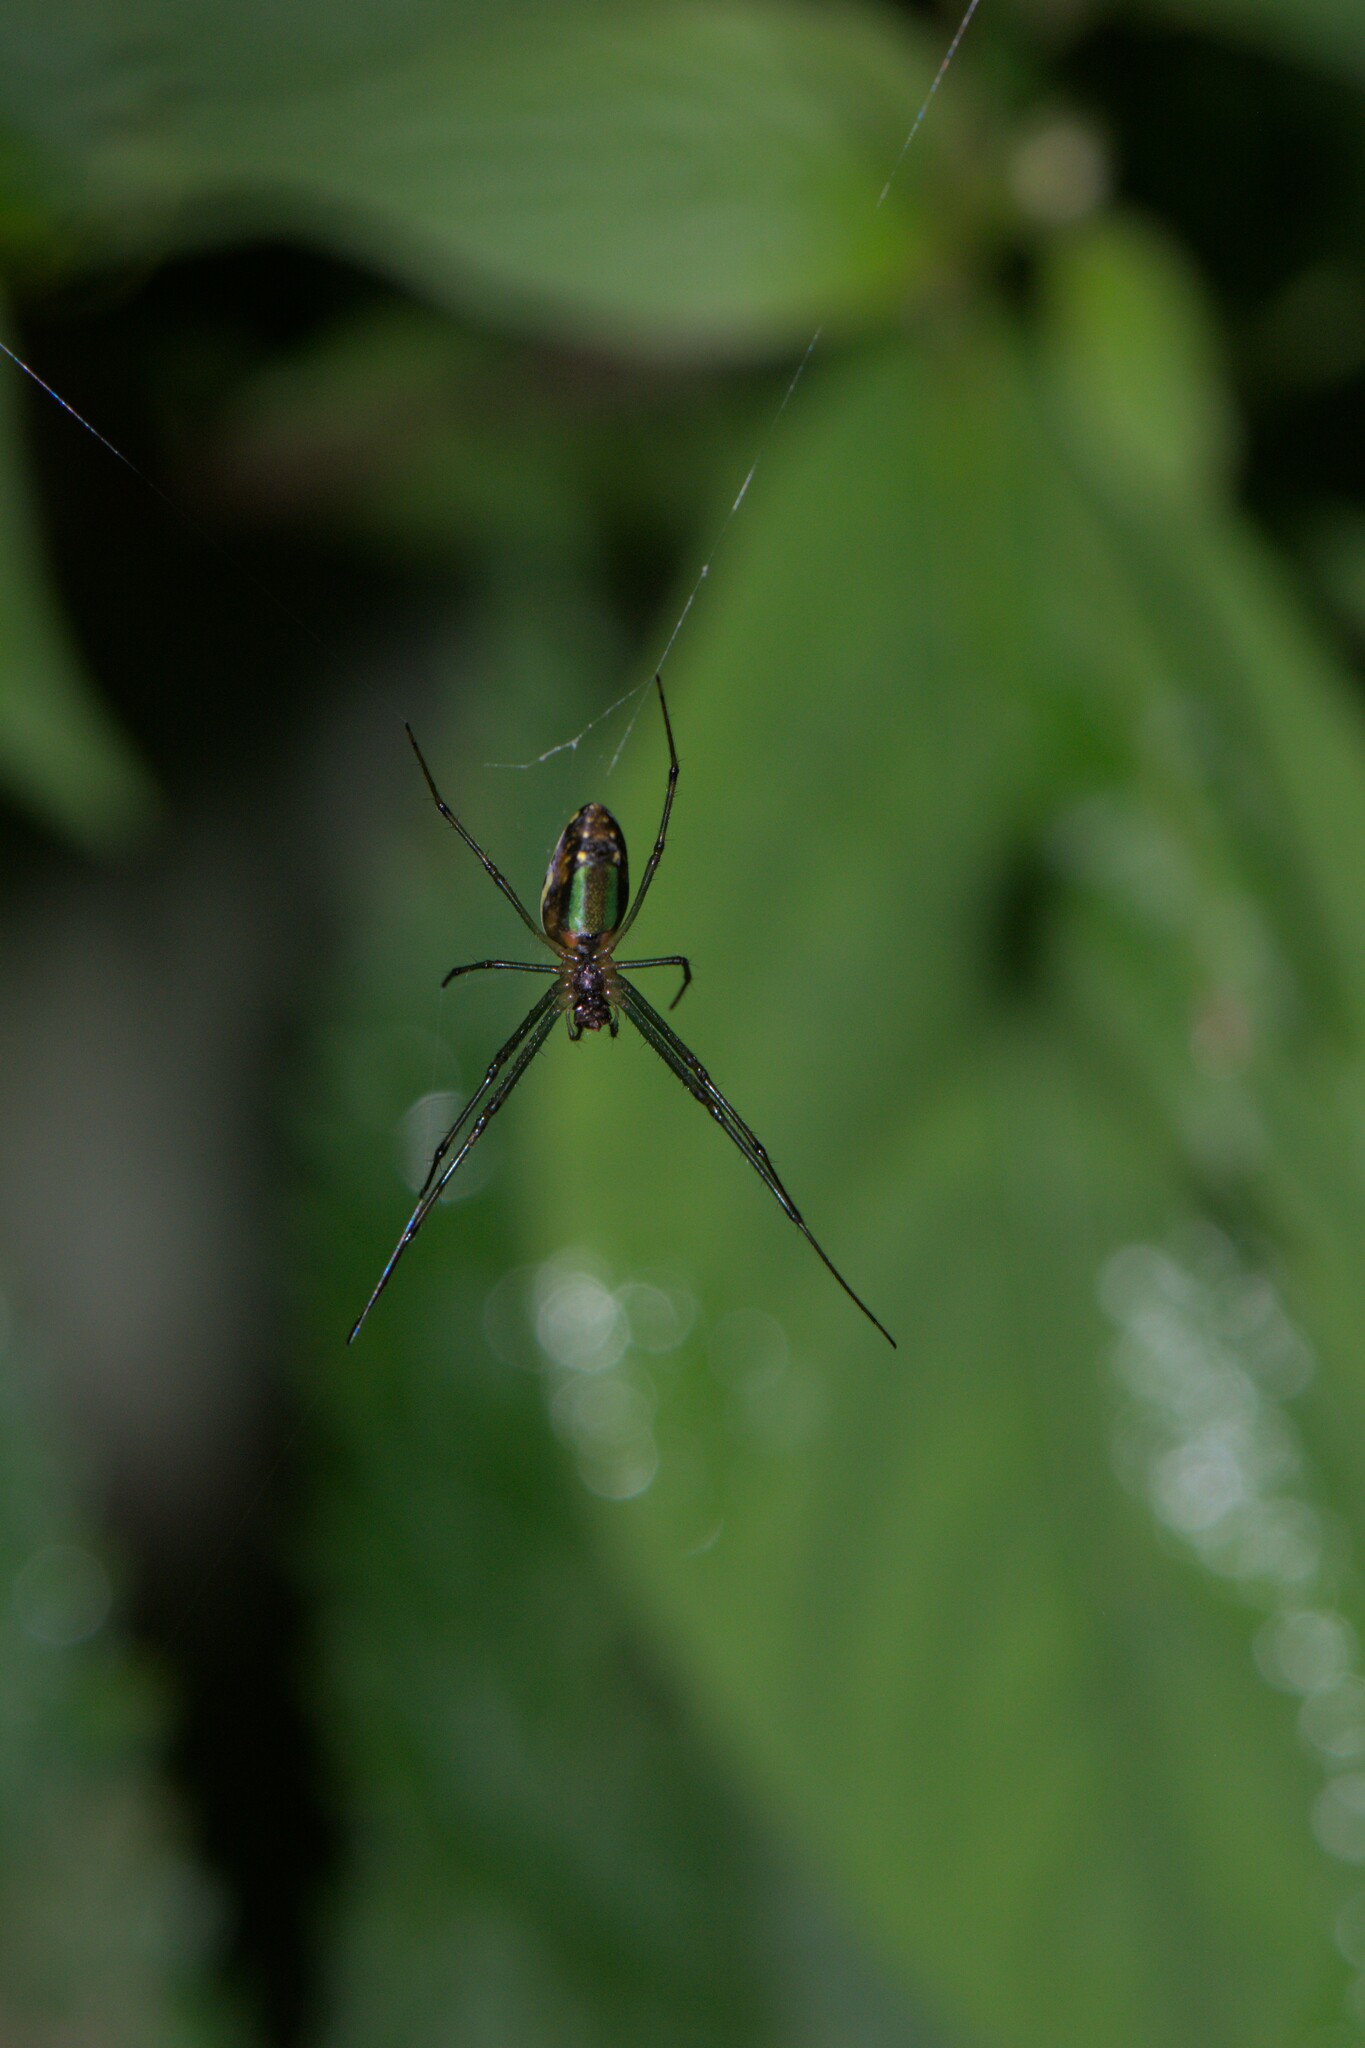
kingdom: Animalia
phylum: Arthropoda
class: Arachnida
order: Araneae
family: Tetragnathidae
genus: Leucauge
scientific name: Leucauge celebesiana
